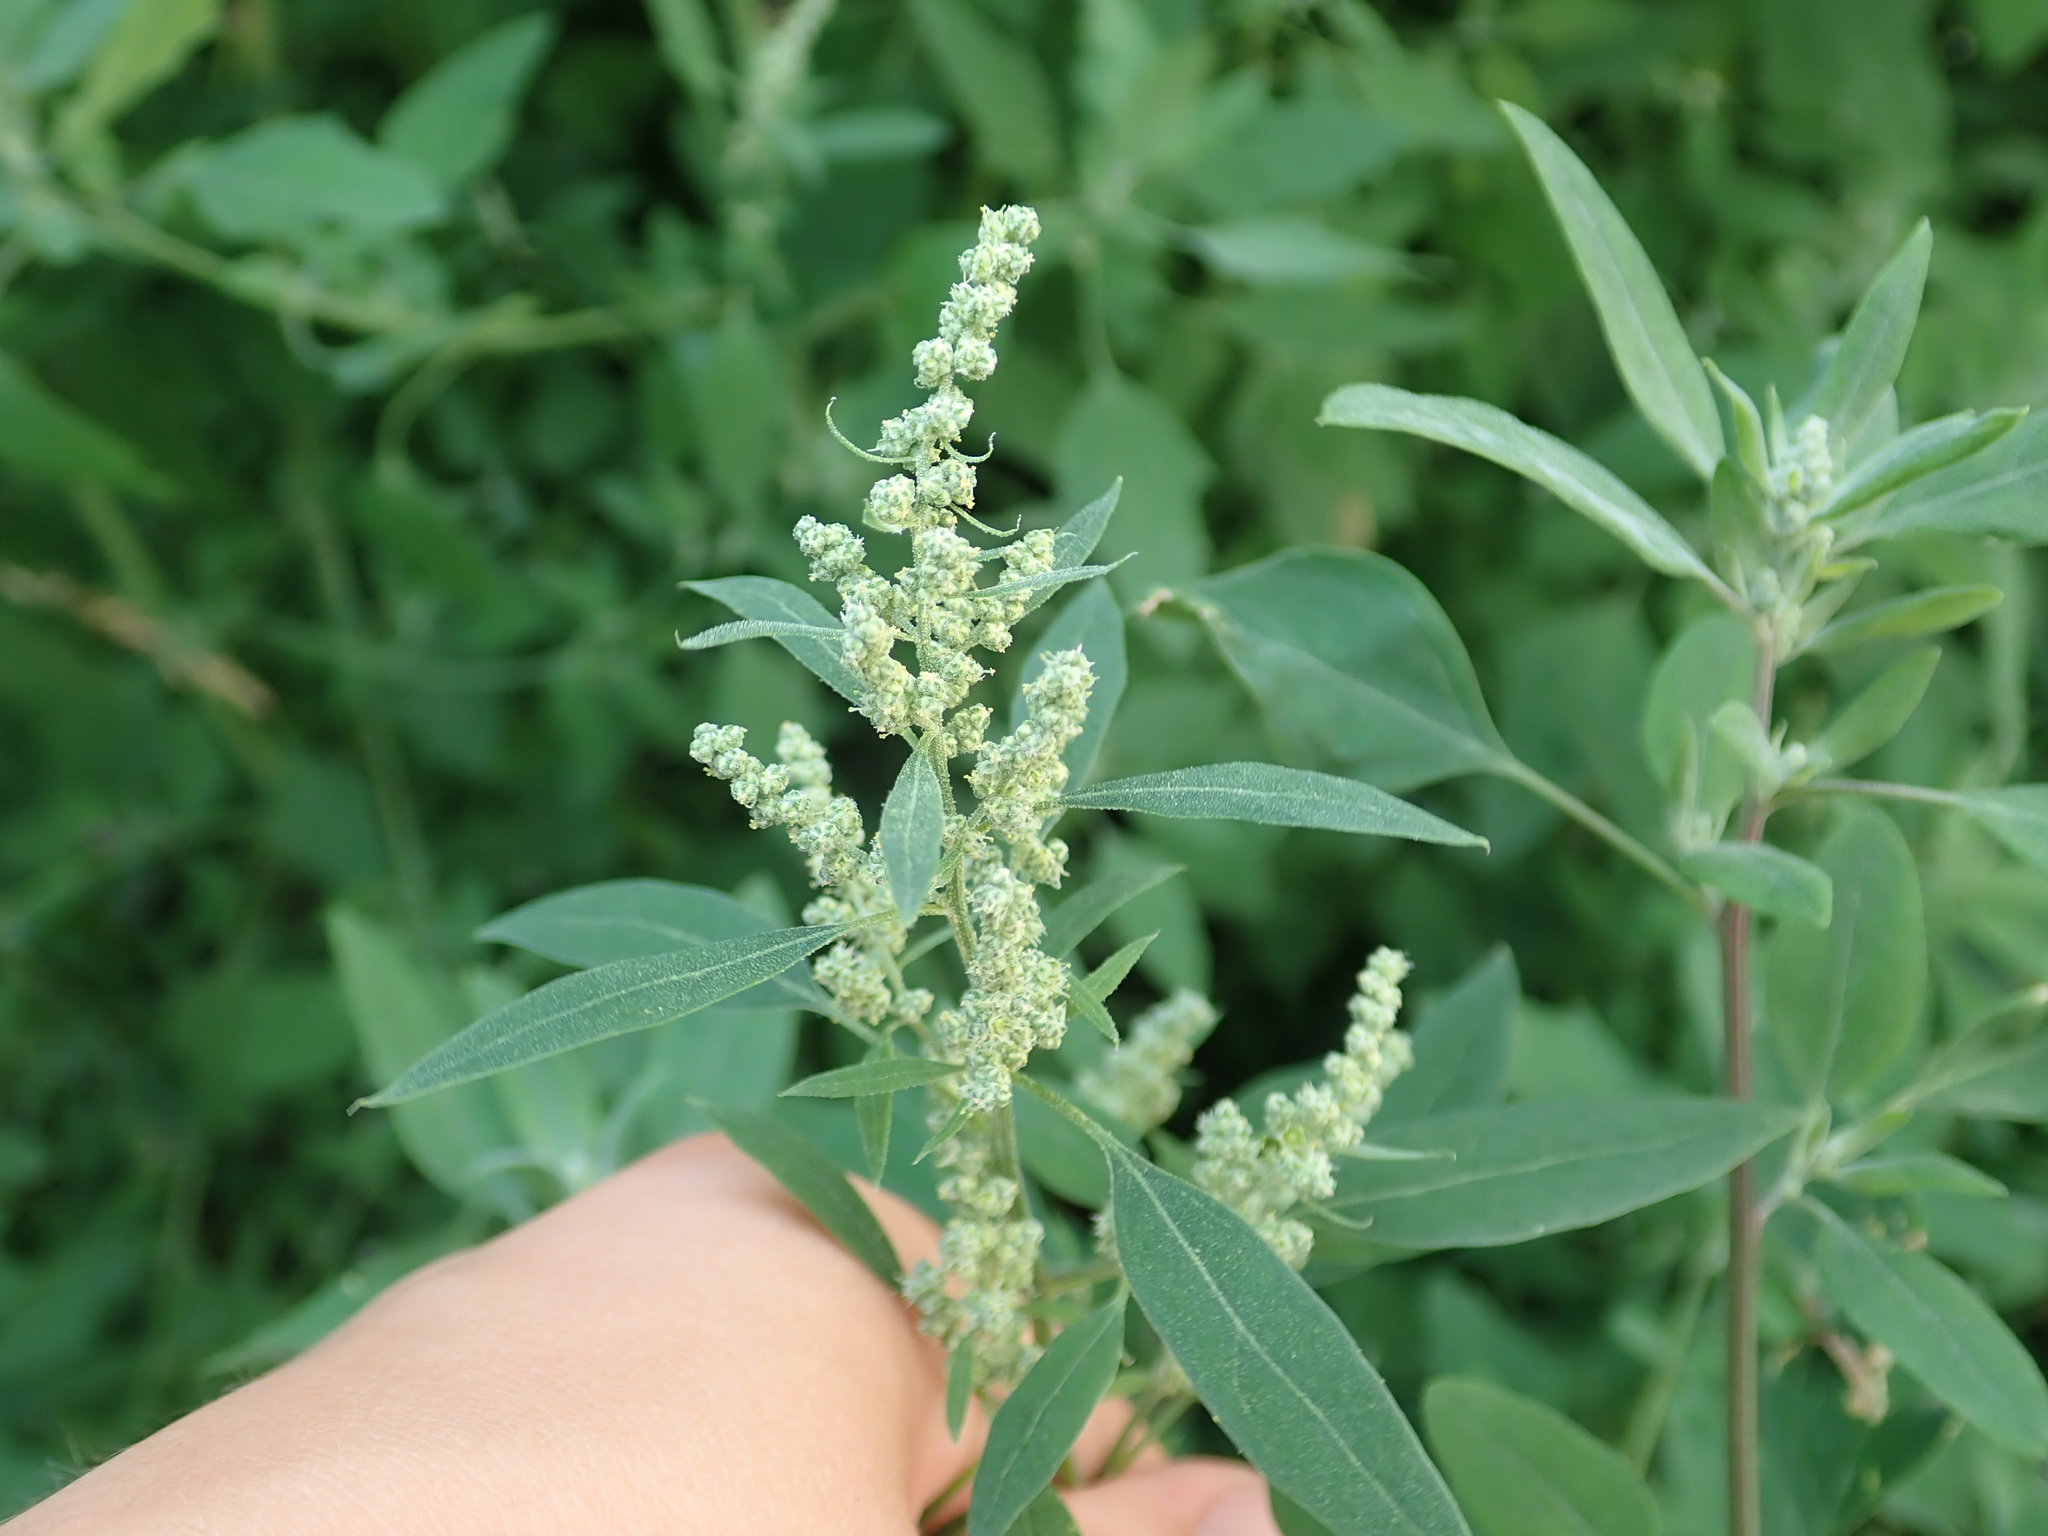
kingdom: Plantae
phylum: Tracheophyta
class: Magnoliopsida
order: Caryophyllales
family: Amaranthaceae
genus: Chenopodium
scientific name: Chenopodium album
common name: Fat-hen
